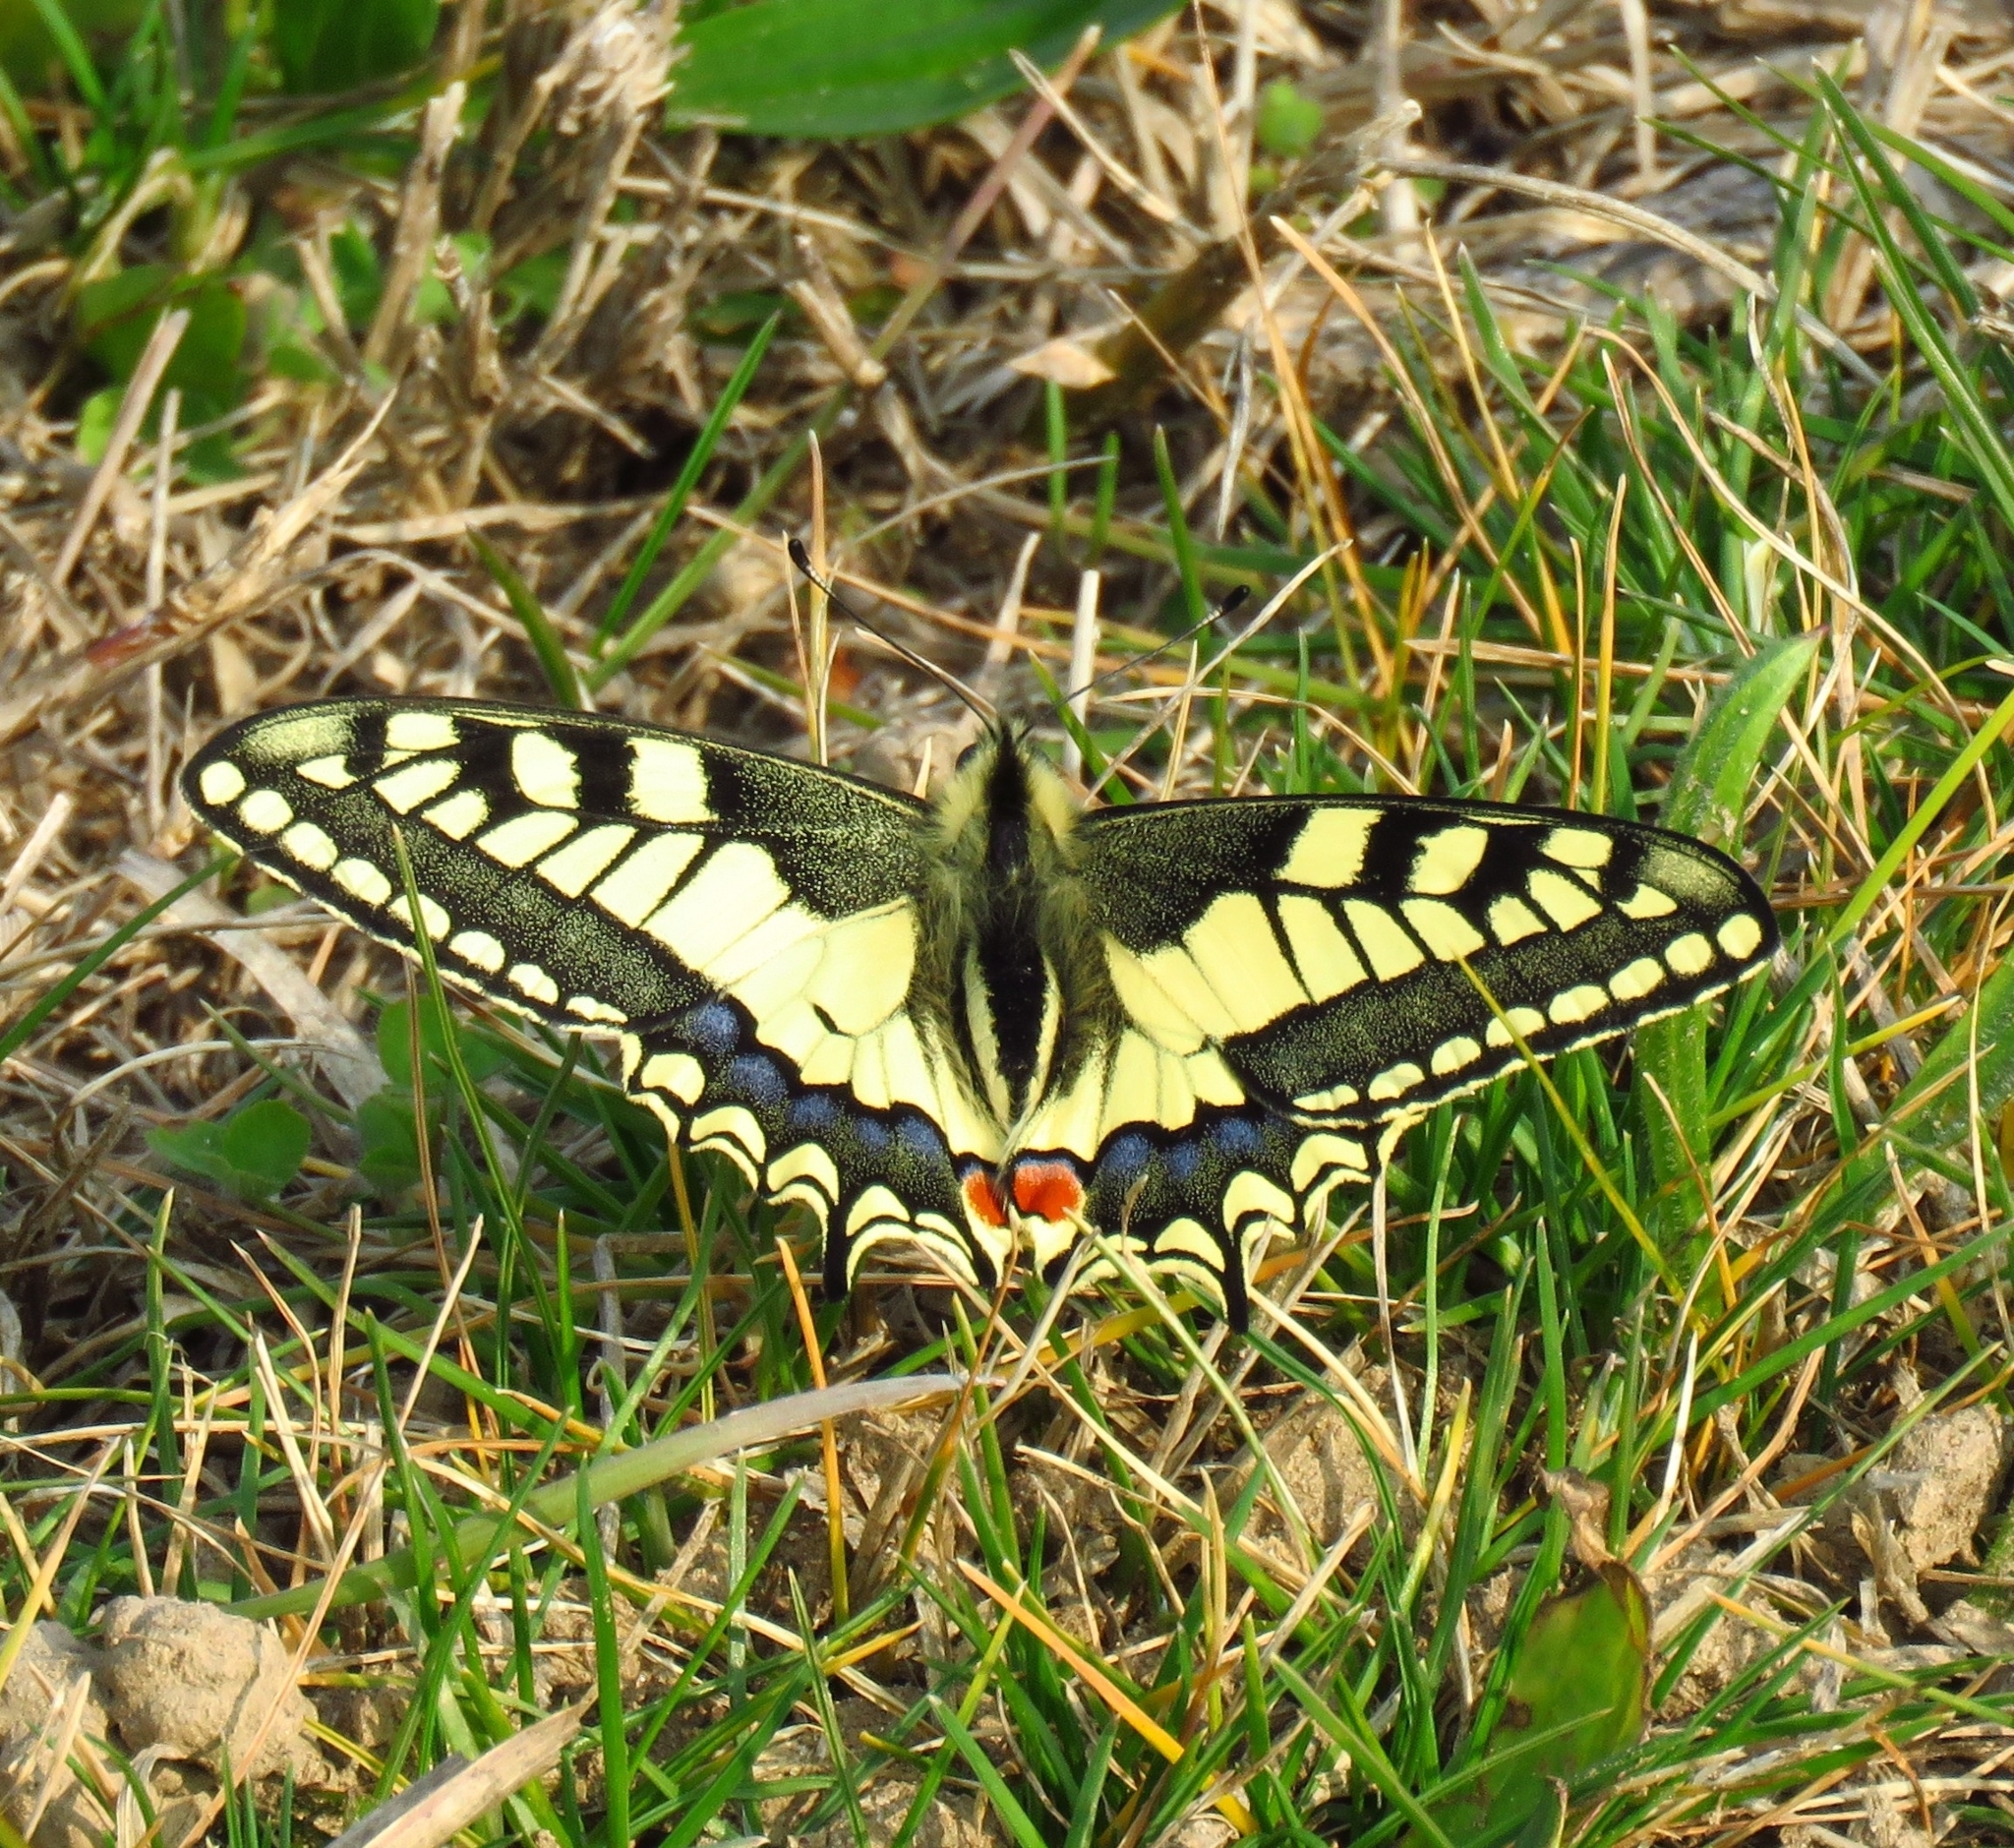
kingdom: Animalia
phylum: Arthropoda
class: Insecta
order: Lepidoptera
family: Papilionidae
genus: Papilio
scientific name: Papilio machaon
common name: Swallowtail
